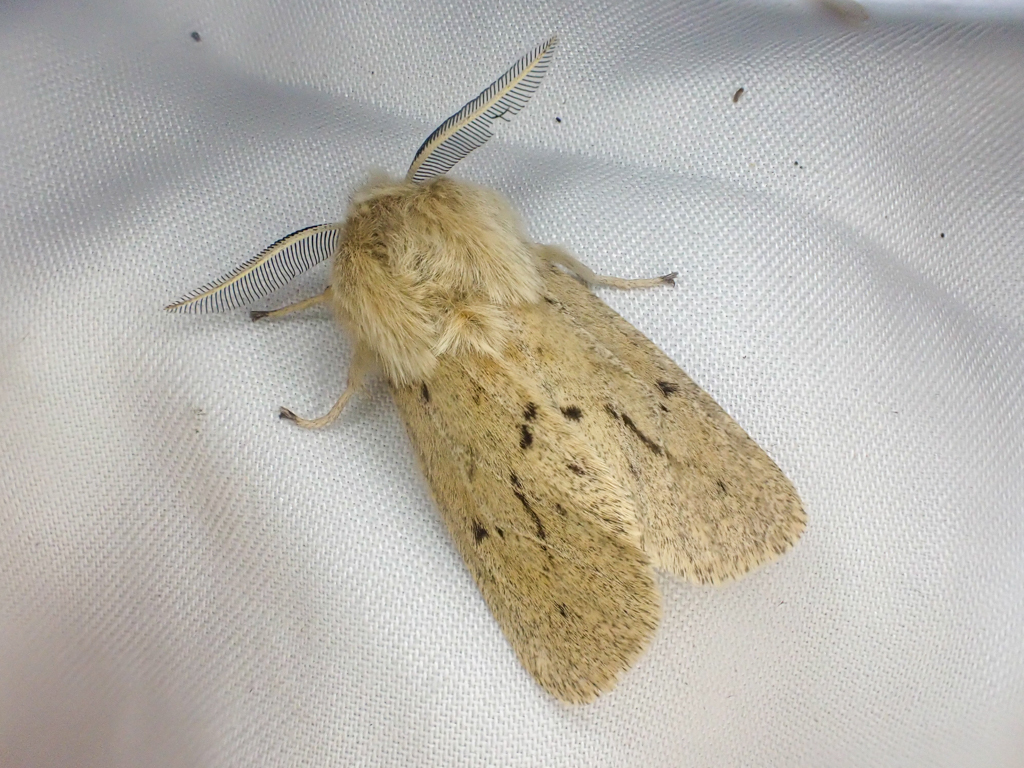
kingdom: Animalia
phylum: Arthropoda
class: Insecta
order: Lepidoptera
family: Erebidae
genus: Spilosoma
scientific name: Spilosoma vagans
